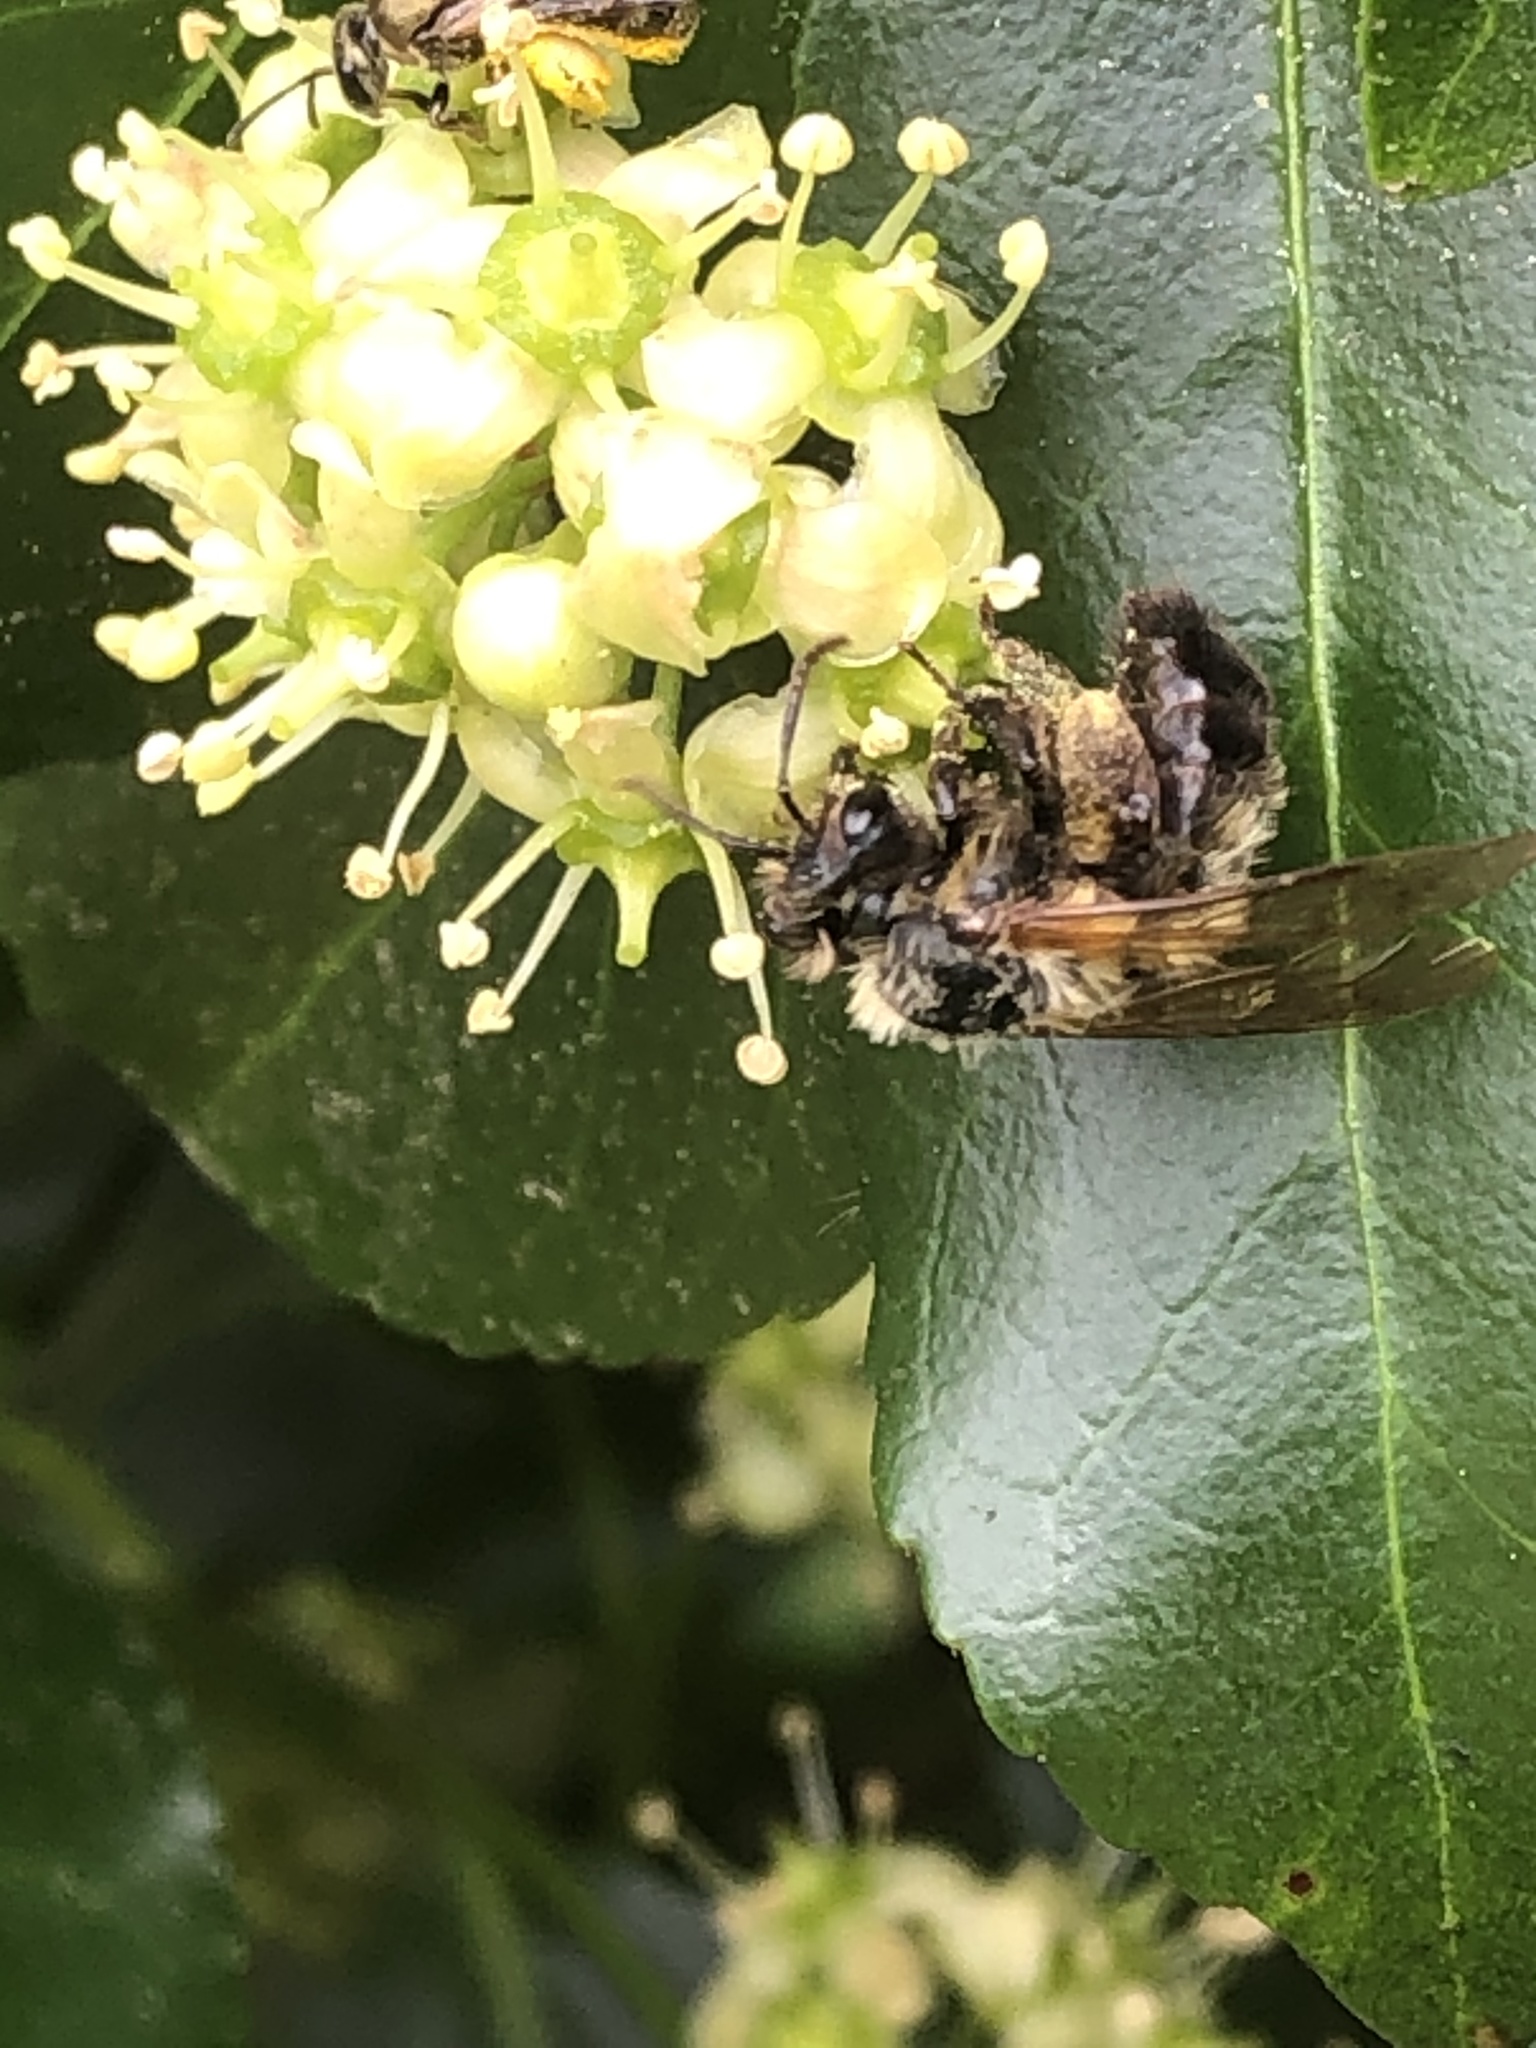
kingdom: Animalia
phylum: Arthropoda
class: Insecta
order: Hymenoptera
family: Andrenidae
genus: Andrena
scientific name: Andrena milwaukeensis
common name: Milwaukee mining bee
